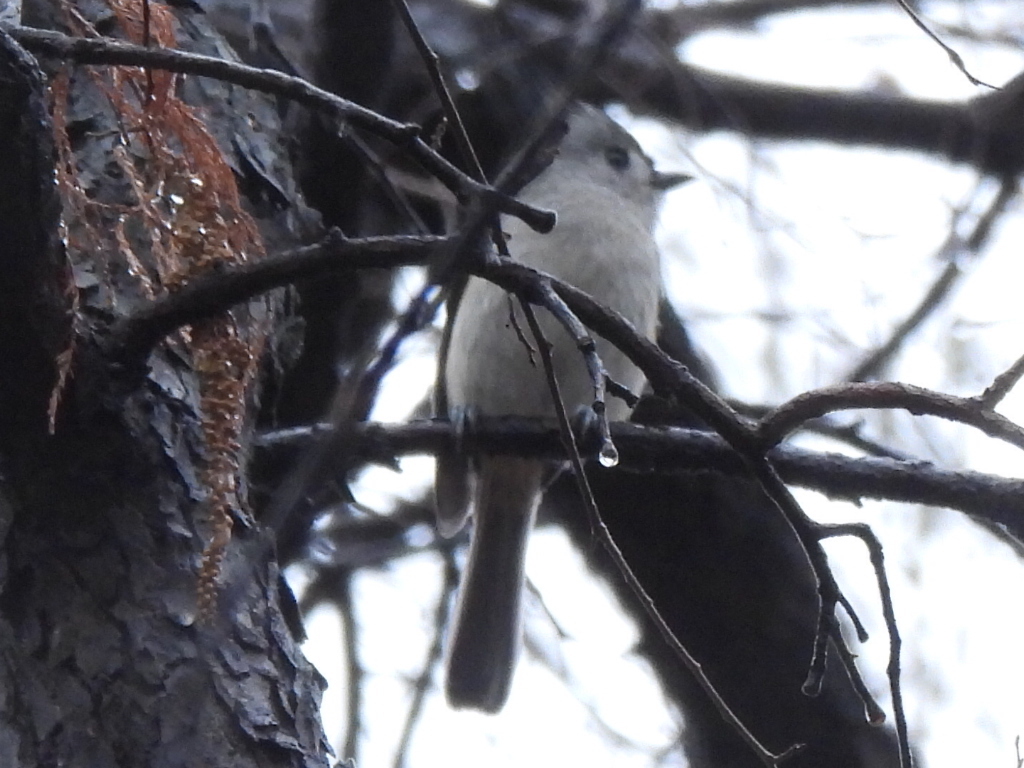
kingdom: Animalia
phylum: Chordata
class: Aves
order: Passeriformes
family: Paridae
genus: Baeolophus
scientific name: Baeolophus bicolor
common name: Tufted titmouse
